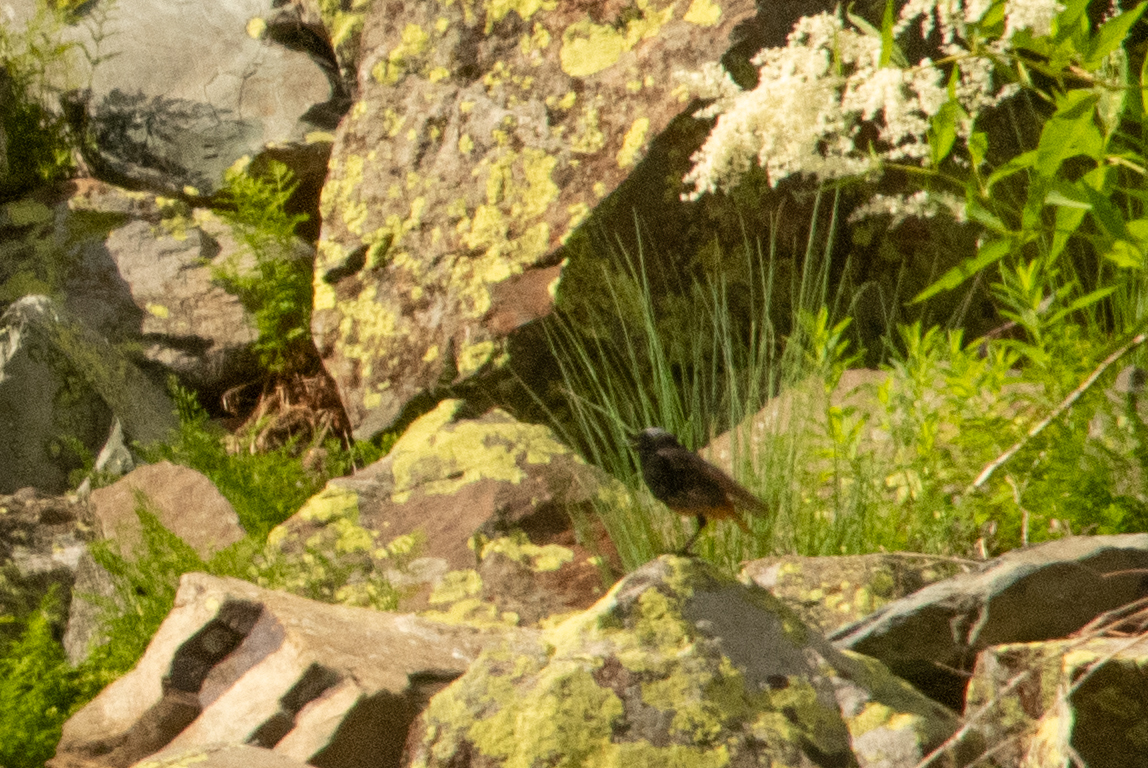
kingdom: Animalia
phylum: Chordata
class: Aves
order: Passeriformes
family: Muscicapidae
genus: Phoenicurus
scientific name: Phoenicurus ochruros
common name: Black redstart
